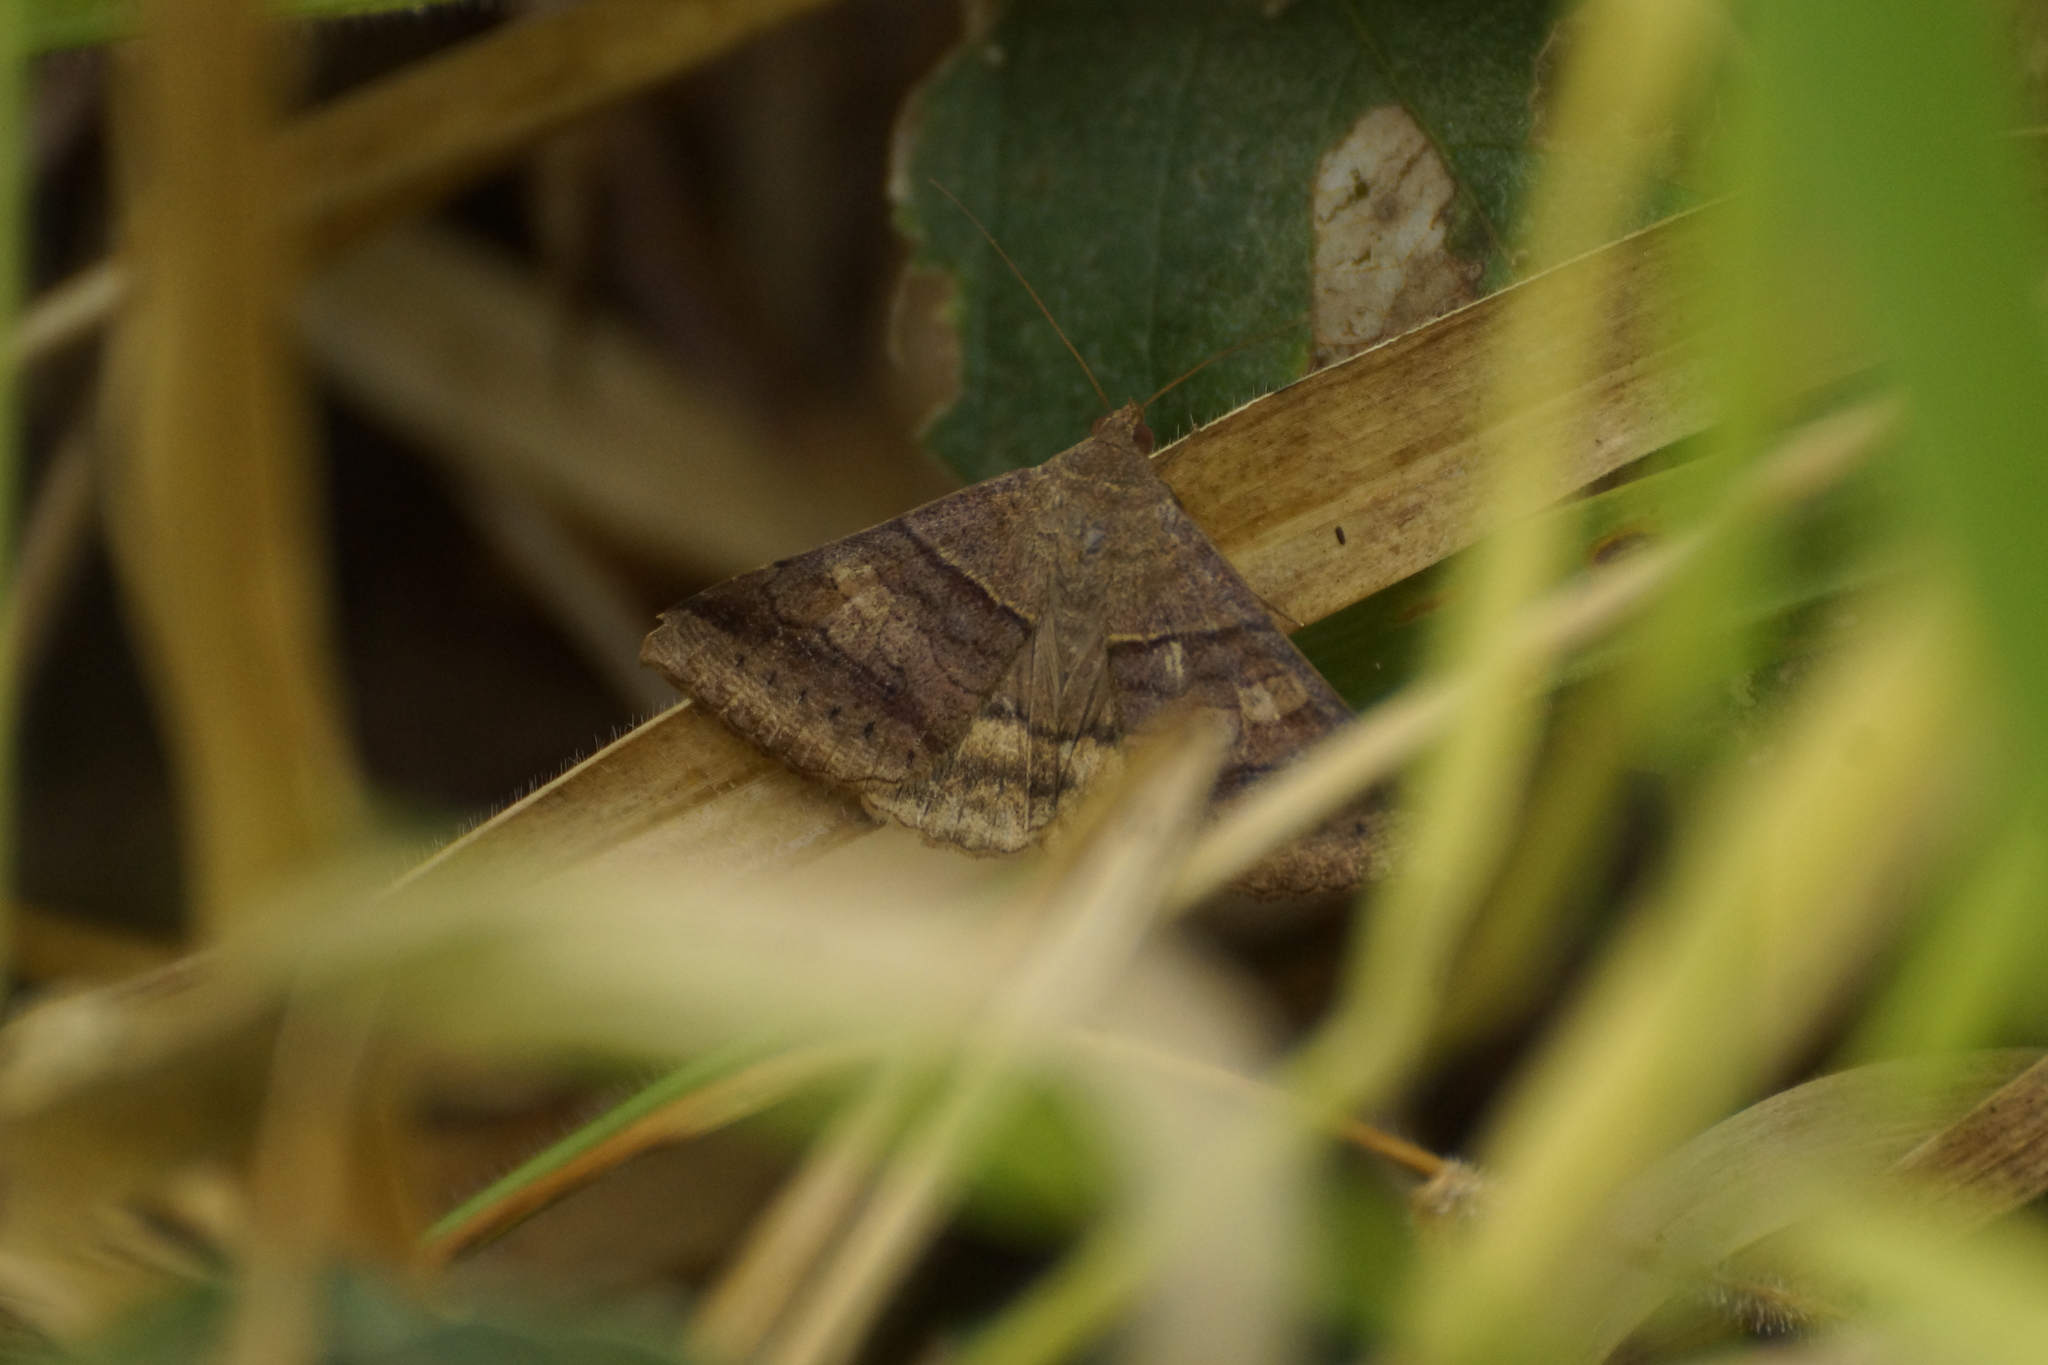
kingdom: Animalia
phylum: Arthropoda
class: Insecta
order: Lepidoptera
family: Erebidae
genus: Mocis
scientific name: Mocis trifasciata
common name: Triple-barred
